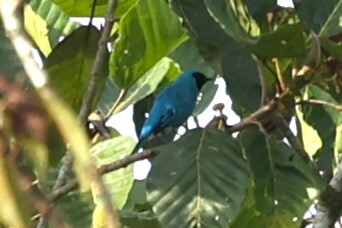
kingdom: Animalia
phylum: Chordata
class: Aves
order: Passeriformes
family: Thraupidae
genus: Tersina
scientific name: Tersina viridis
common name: Swallow tanager
